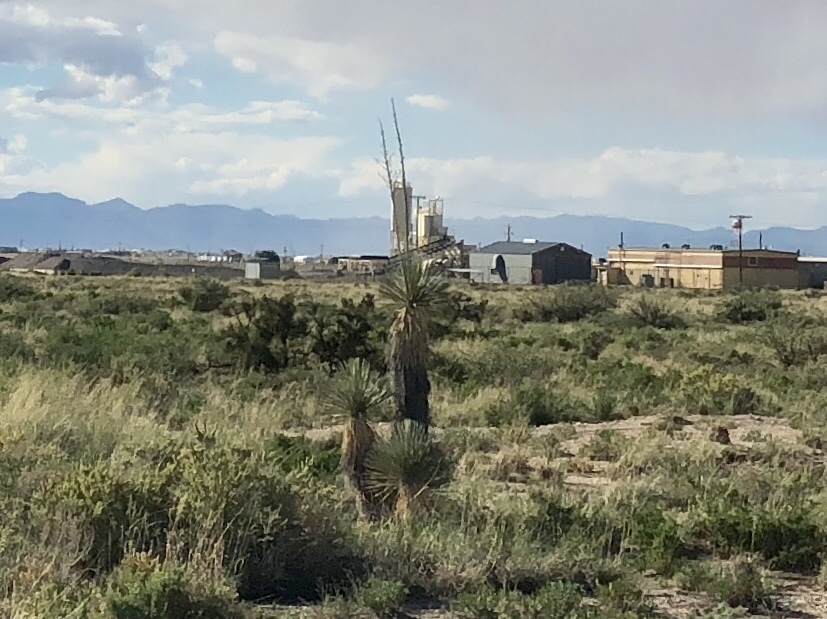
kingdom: Plantae
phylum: Tracheophyta
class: Liliopsida
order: Asparagales
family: Asparagaceae
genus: Yucca
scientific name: Yucca elata
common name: Palmella
